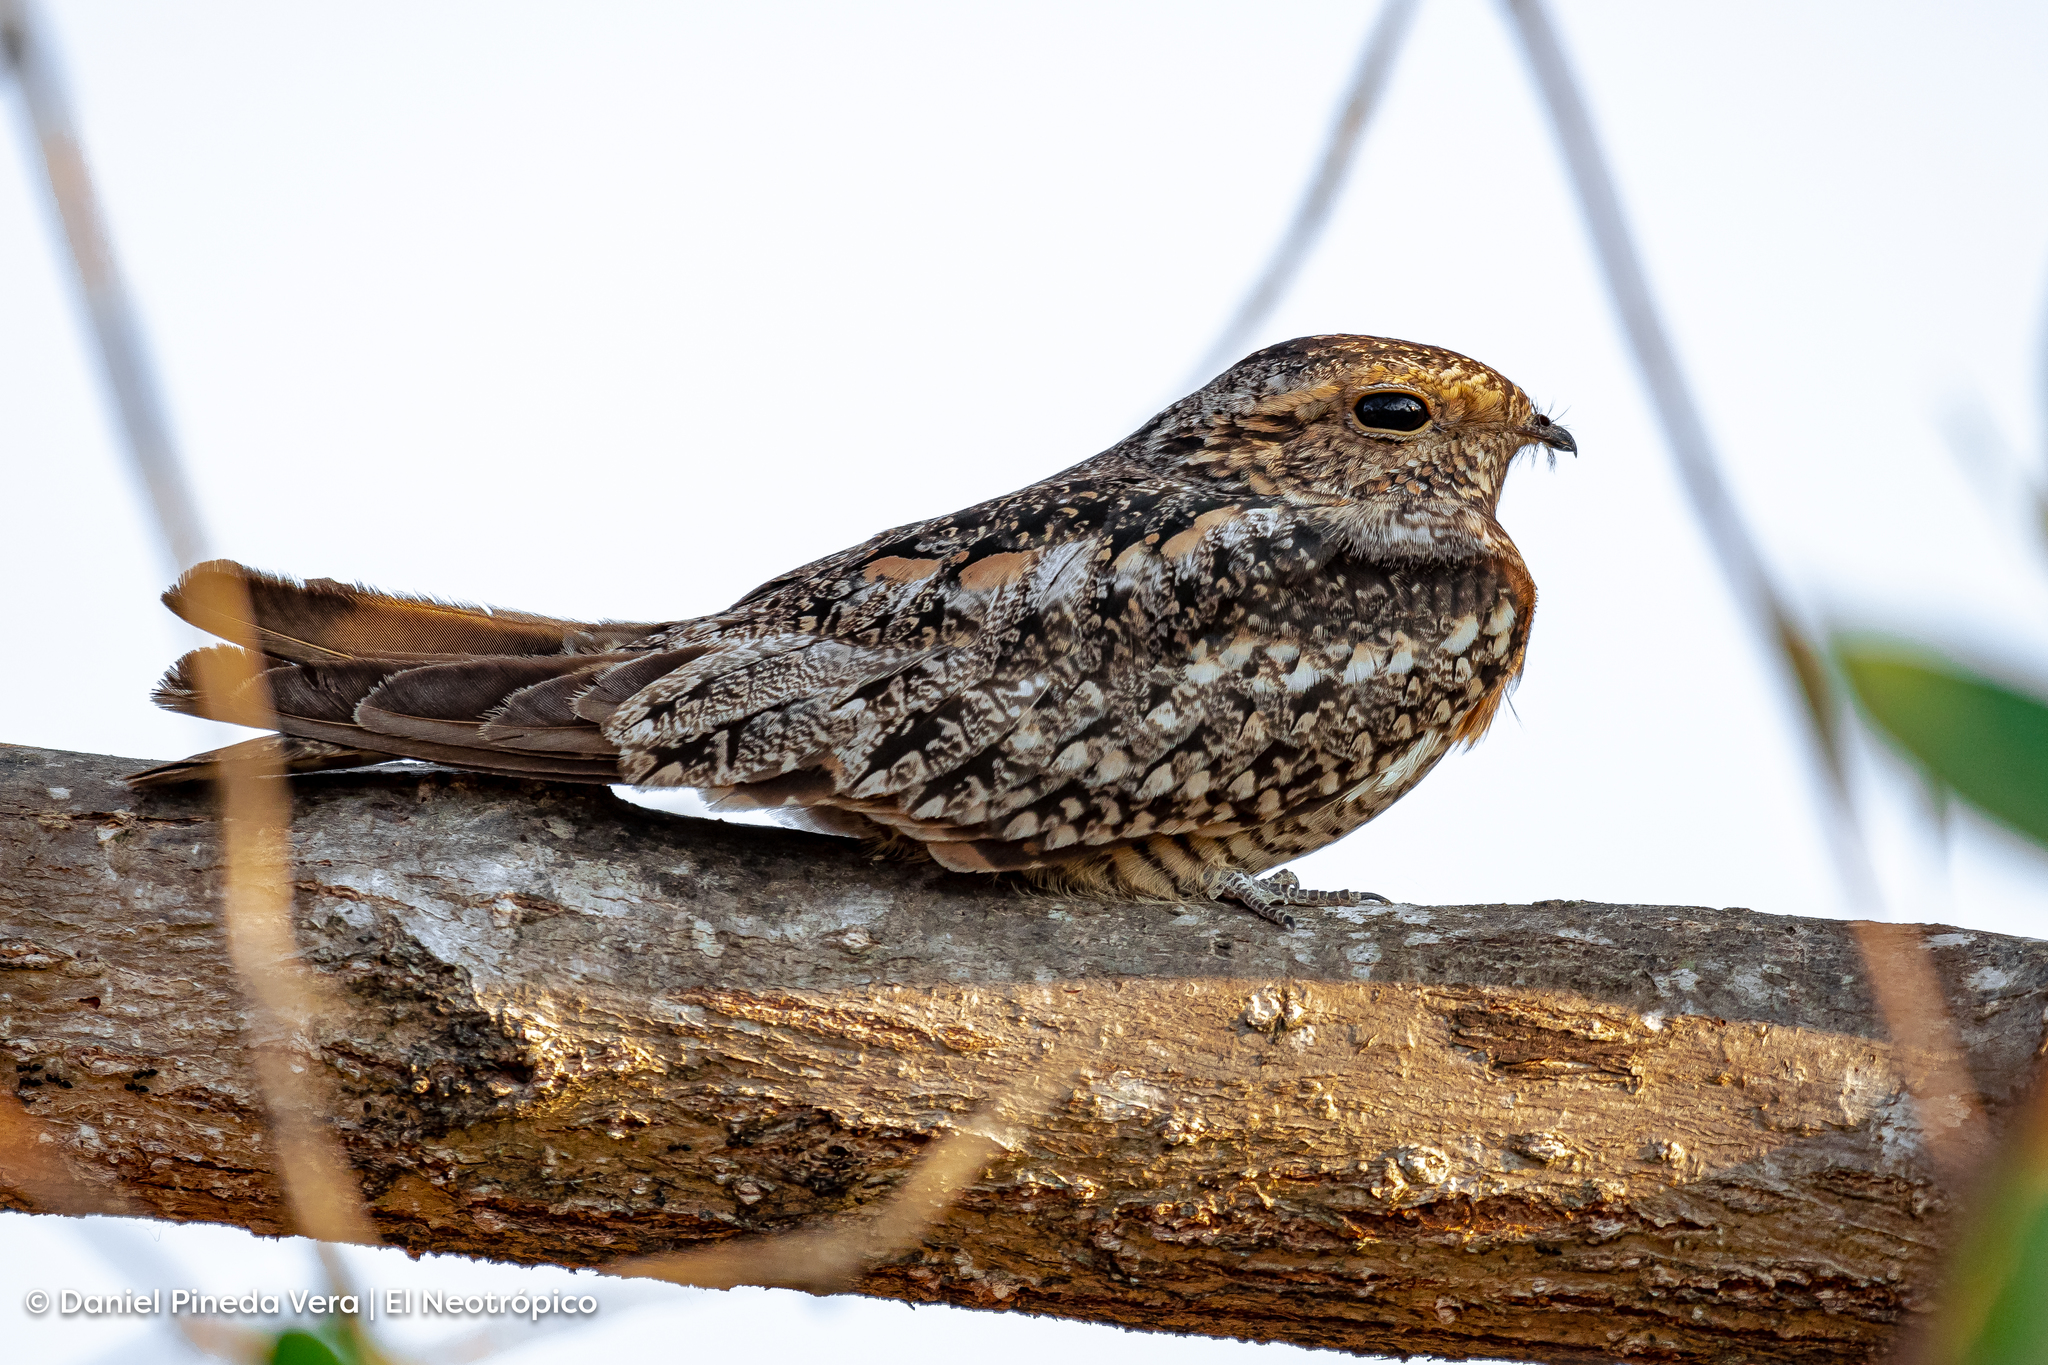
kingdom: Animalia
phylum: Chordata
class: Aves
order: Caprimulgiformes
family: Caprimulgidae
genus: Chordeiles
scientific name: Chordeiles acutipennis
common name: Lesser nighthawk
